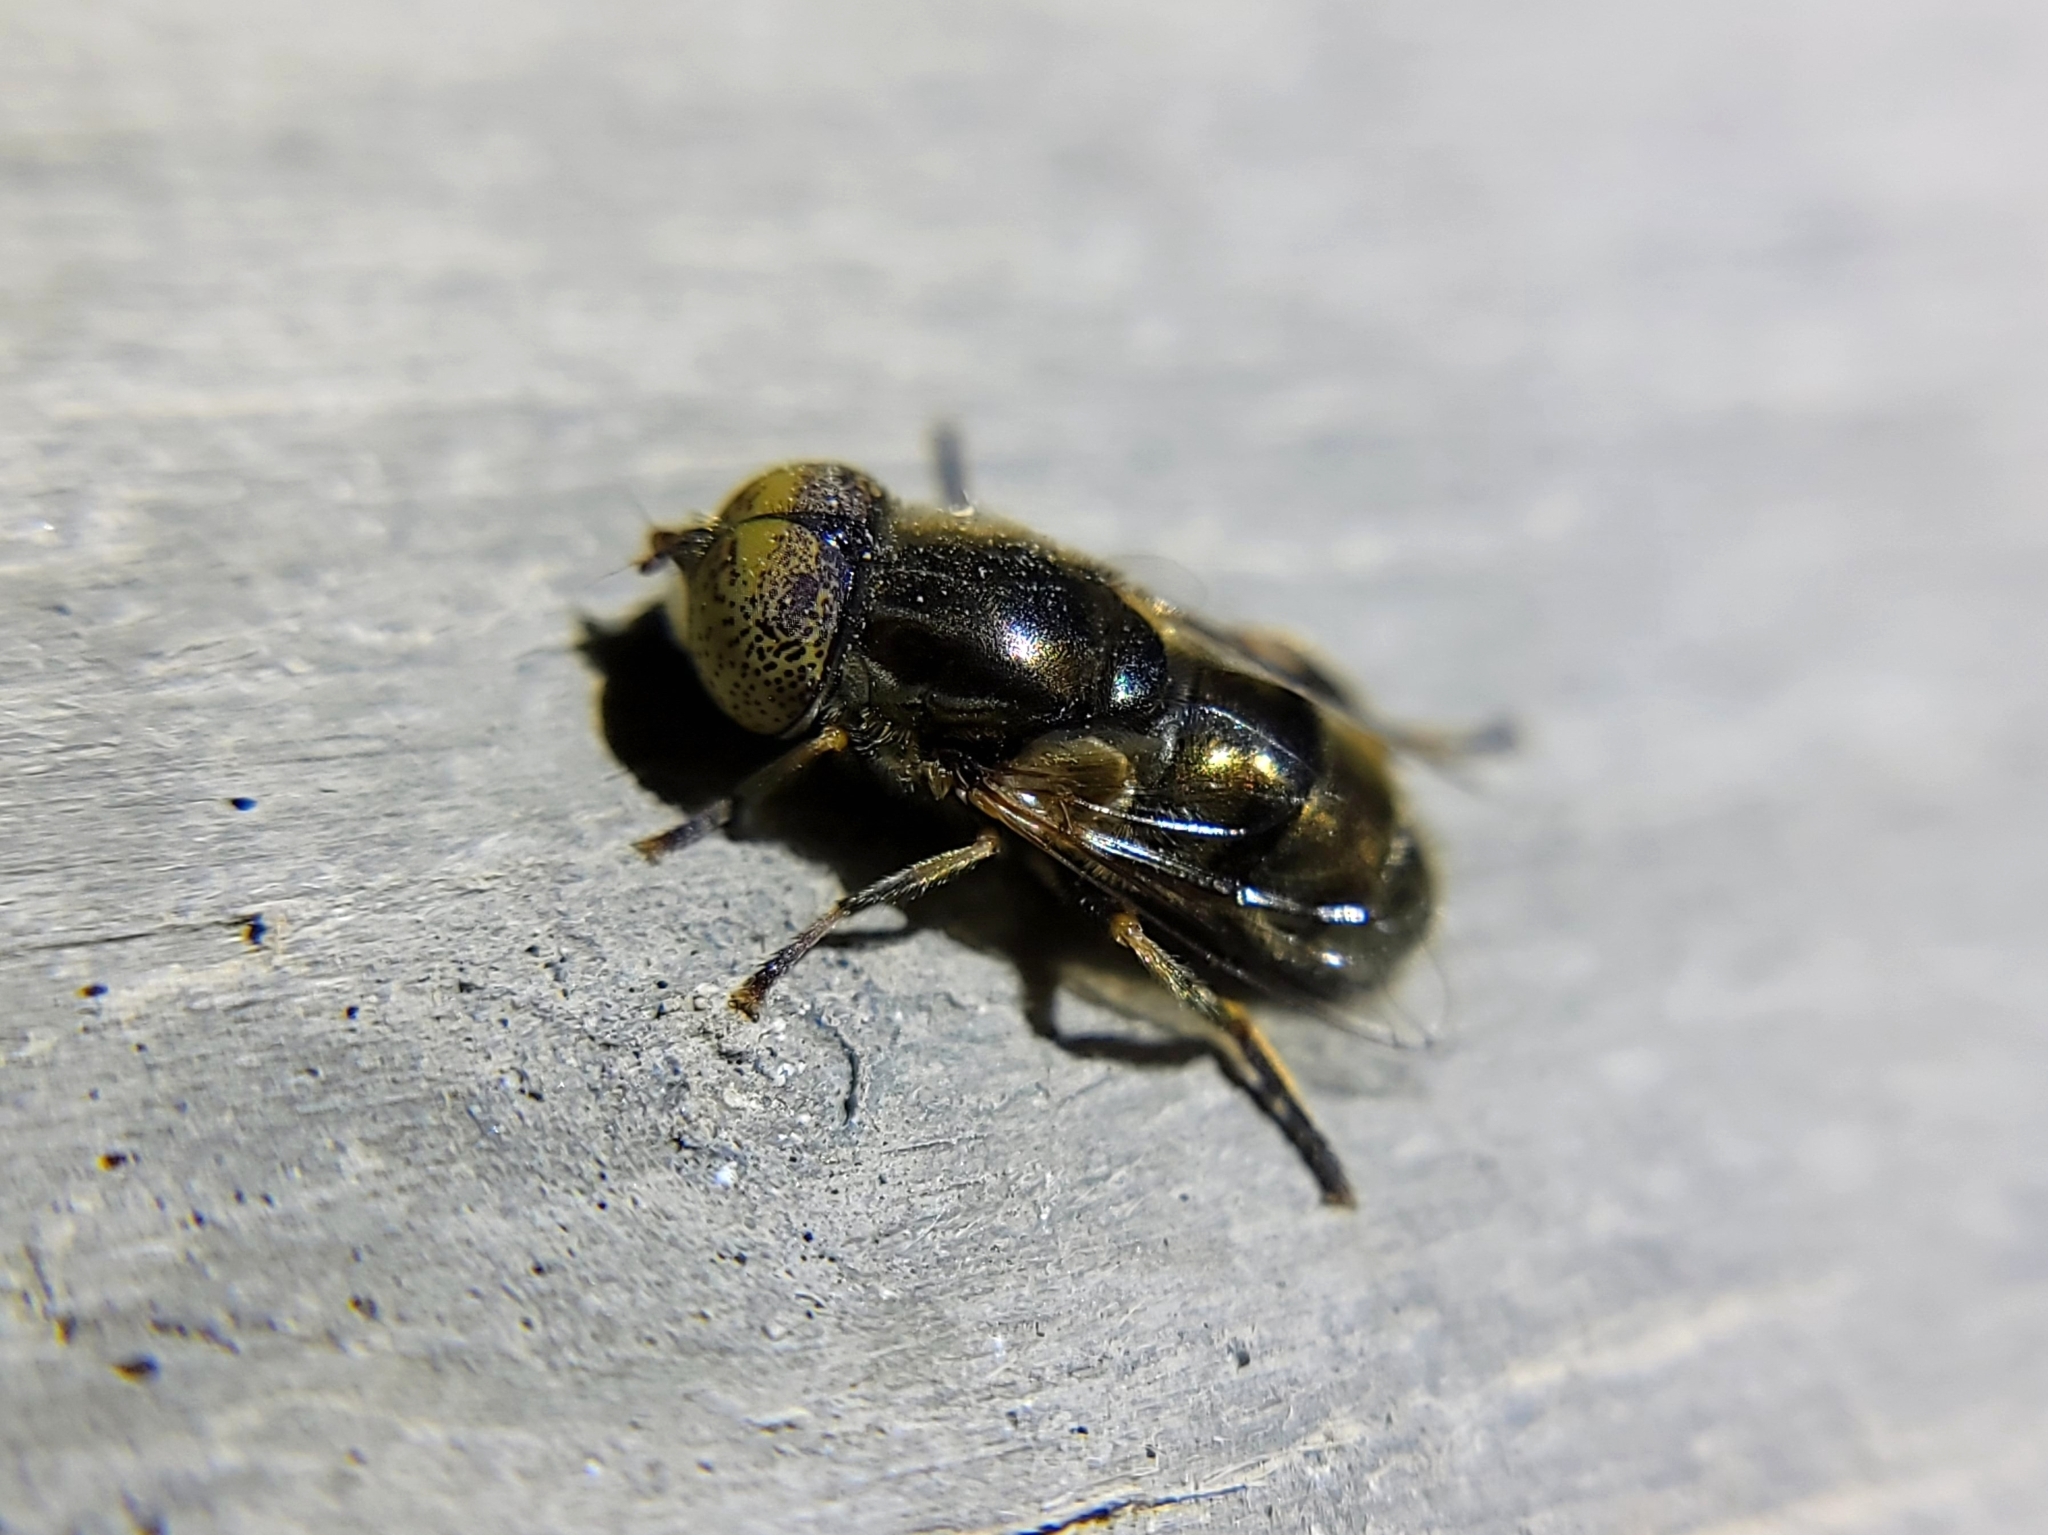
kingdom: Animalia
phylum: Arthropoda
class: Insecta
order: Diptera
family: Syrphidae
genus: Eristalinus
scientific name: Eristalinus aeneus
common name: Syrphid fly
